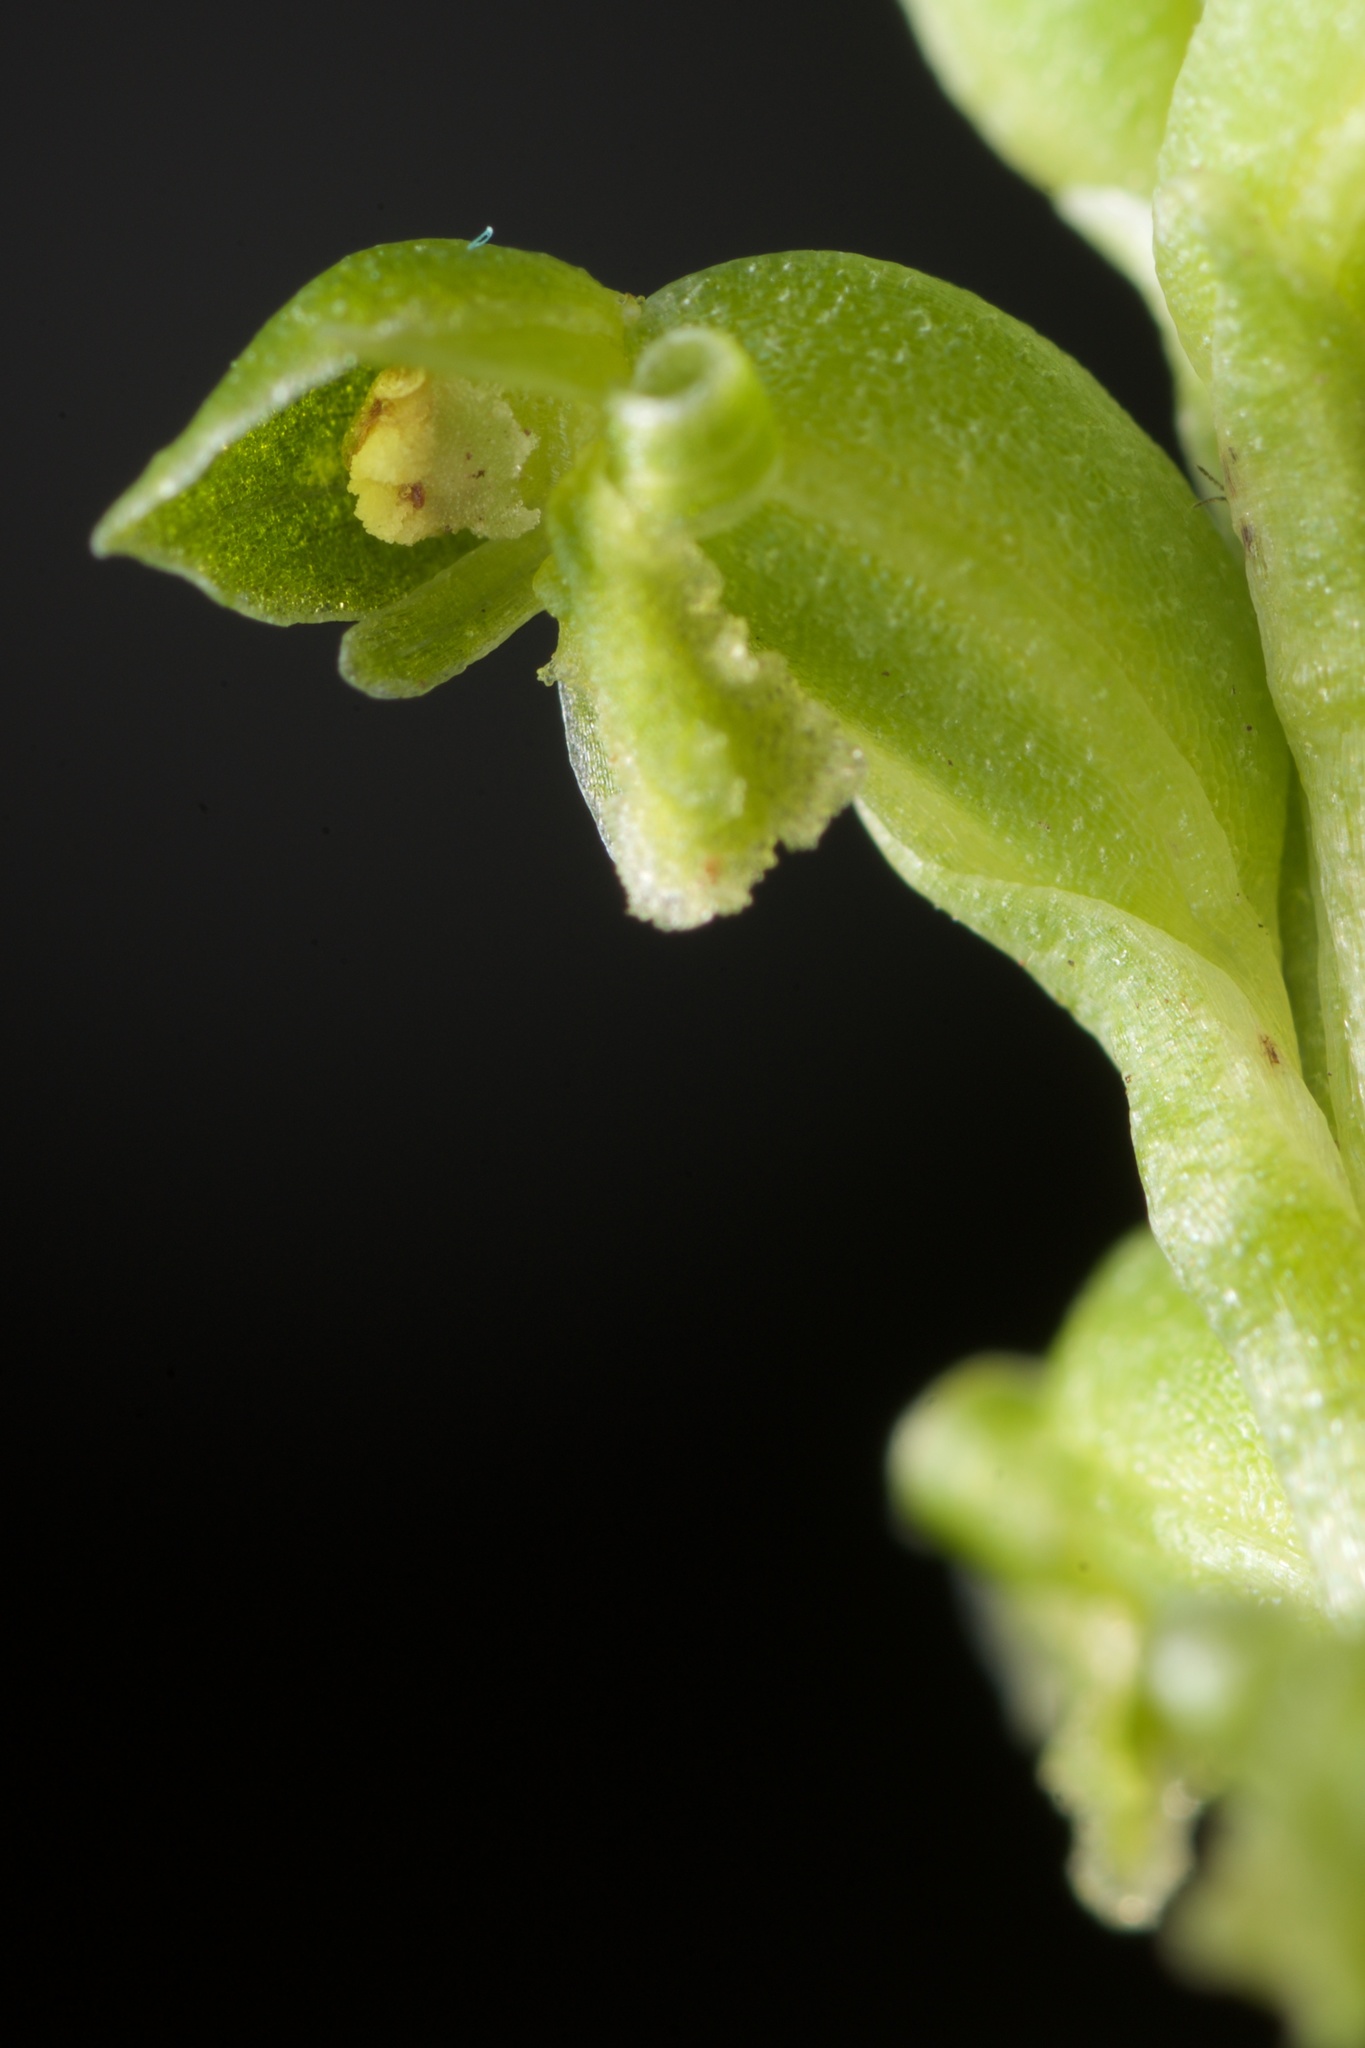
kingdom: Plantae
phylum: Tracheophyta
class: Liliopsida
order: Asparagales
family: Orchidaceae
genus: Microtis
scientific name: Microtis unifolia
